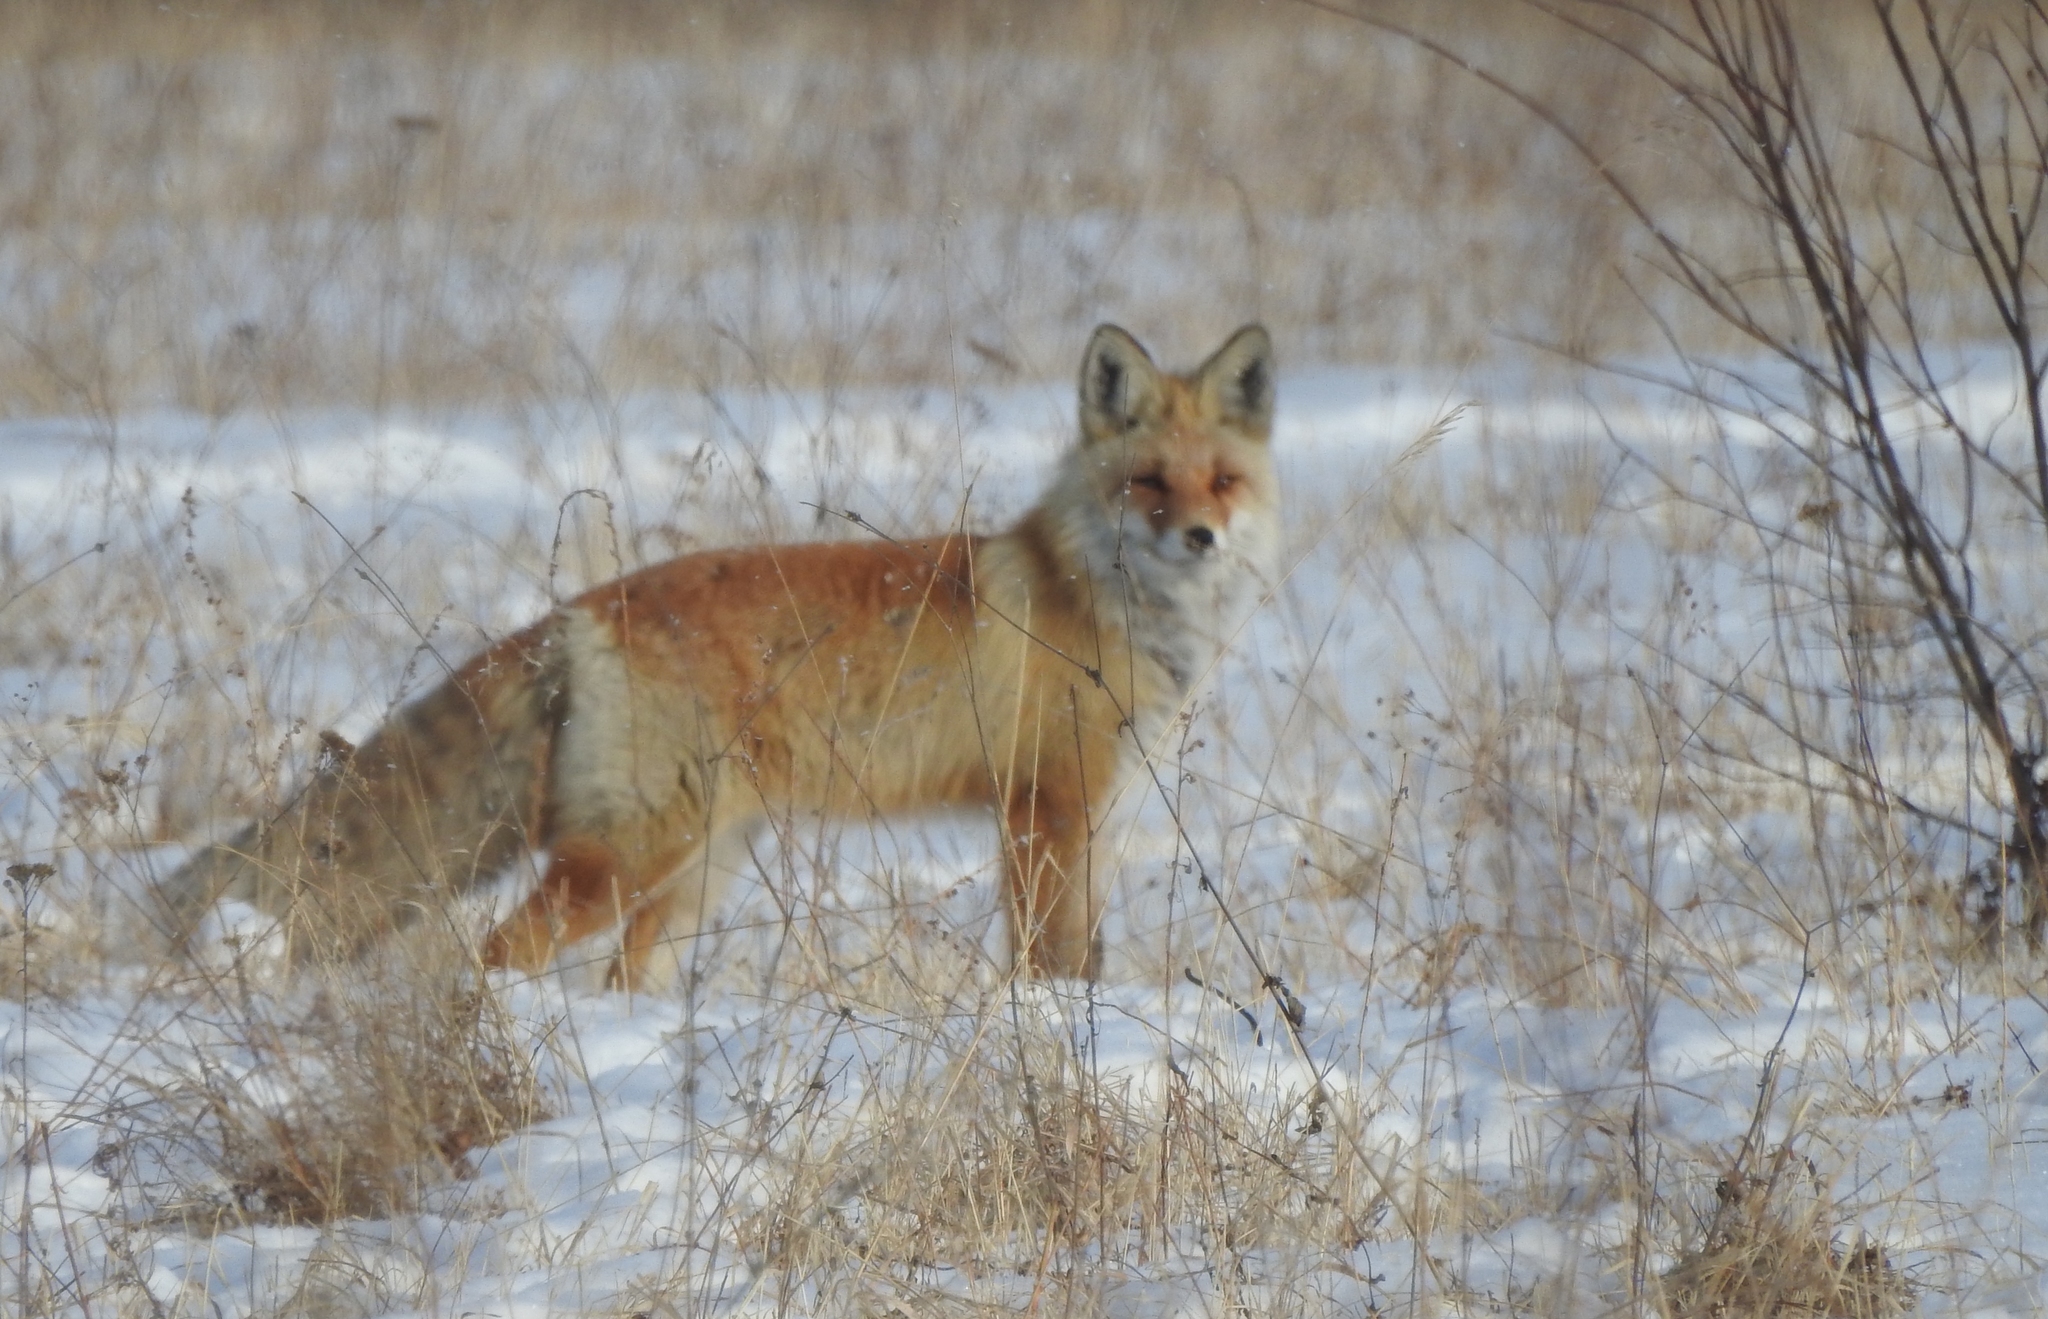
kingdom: Animalia
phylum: Chordata
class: Mammalia
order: Carnivora
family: Canidae
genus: Vulpes
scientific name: Vulpes vulpes
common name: Red fox
